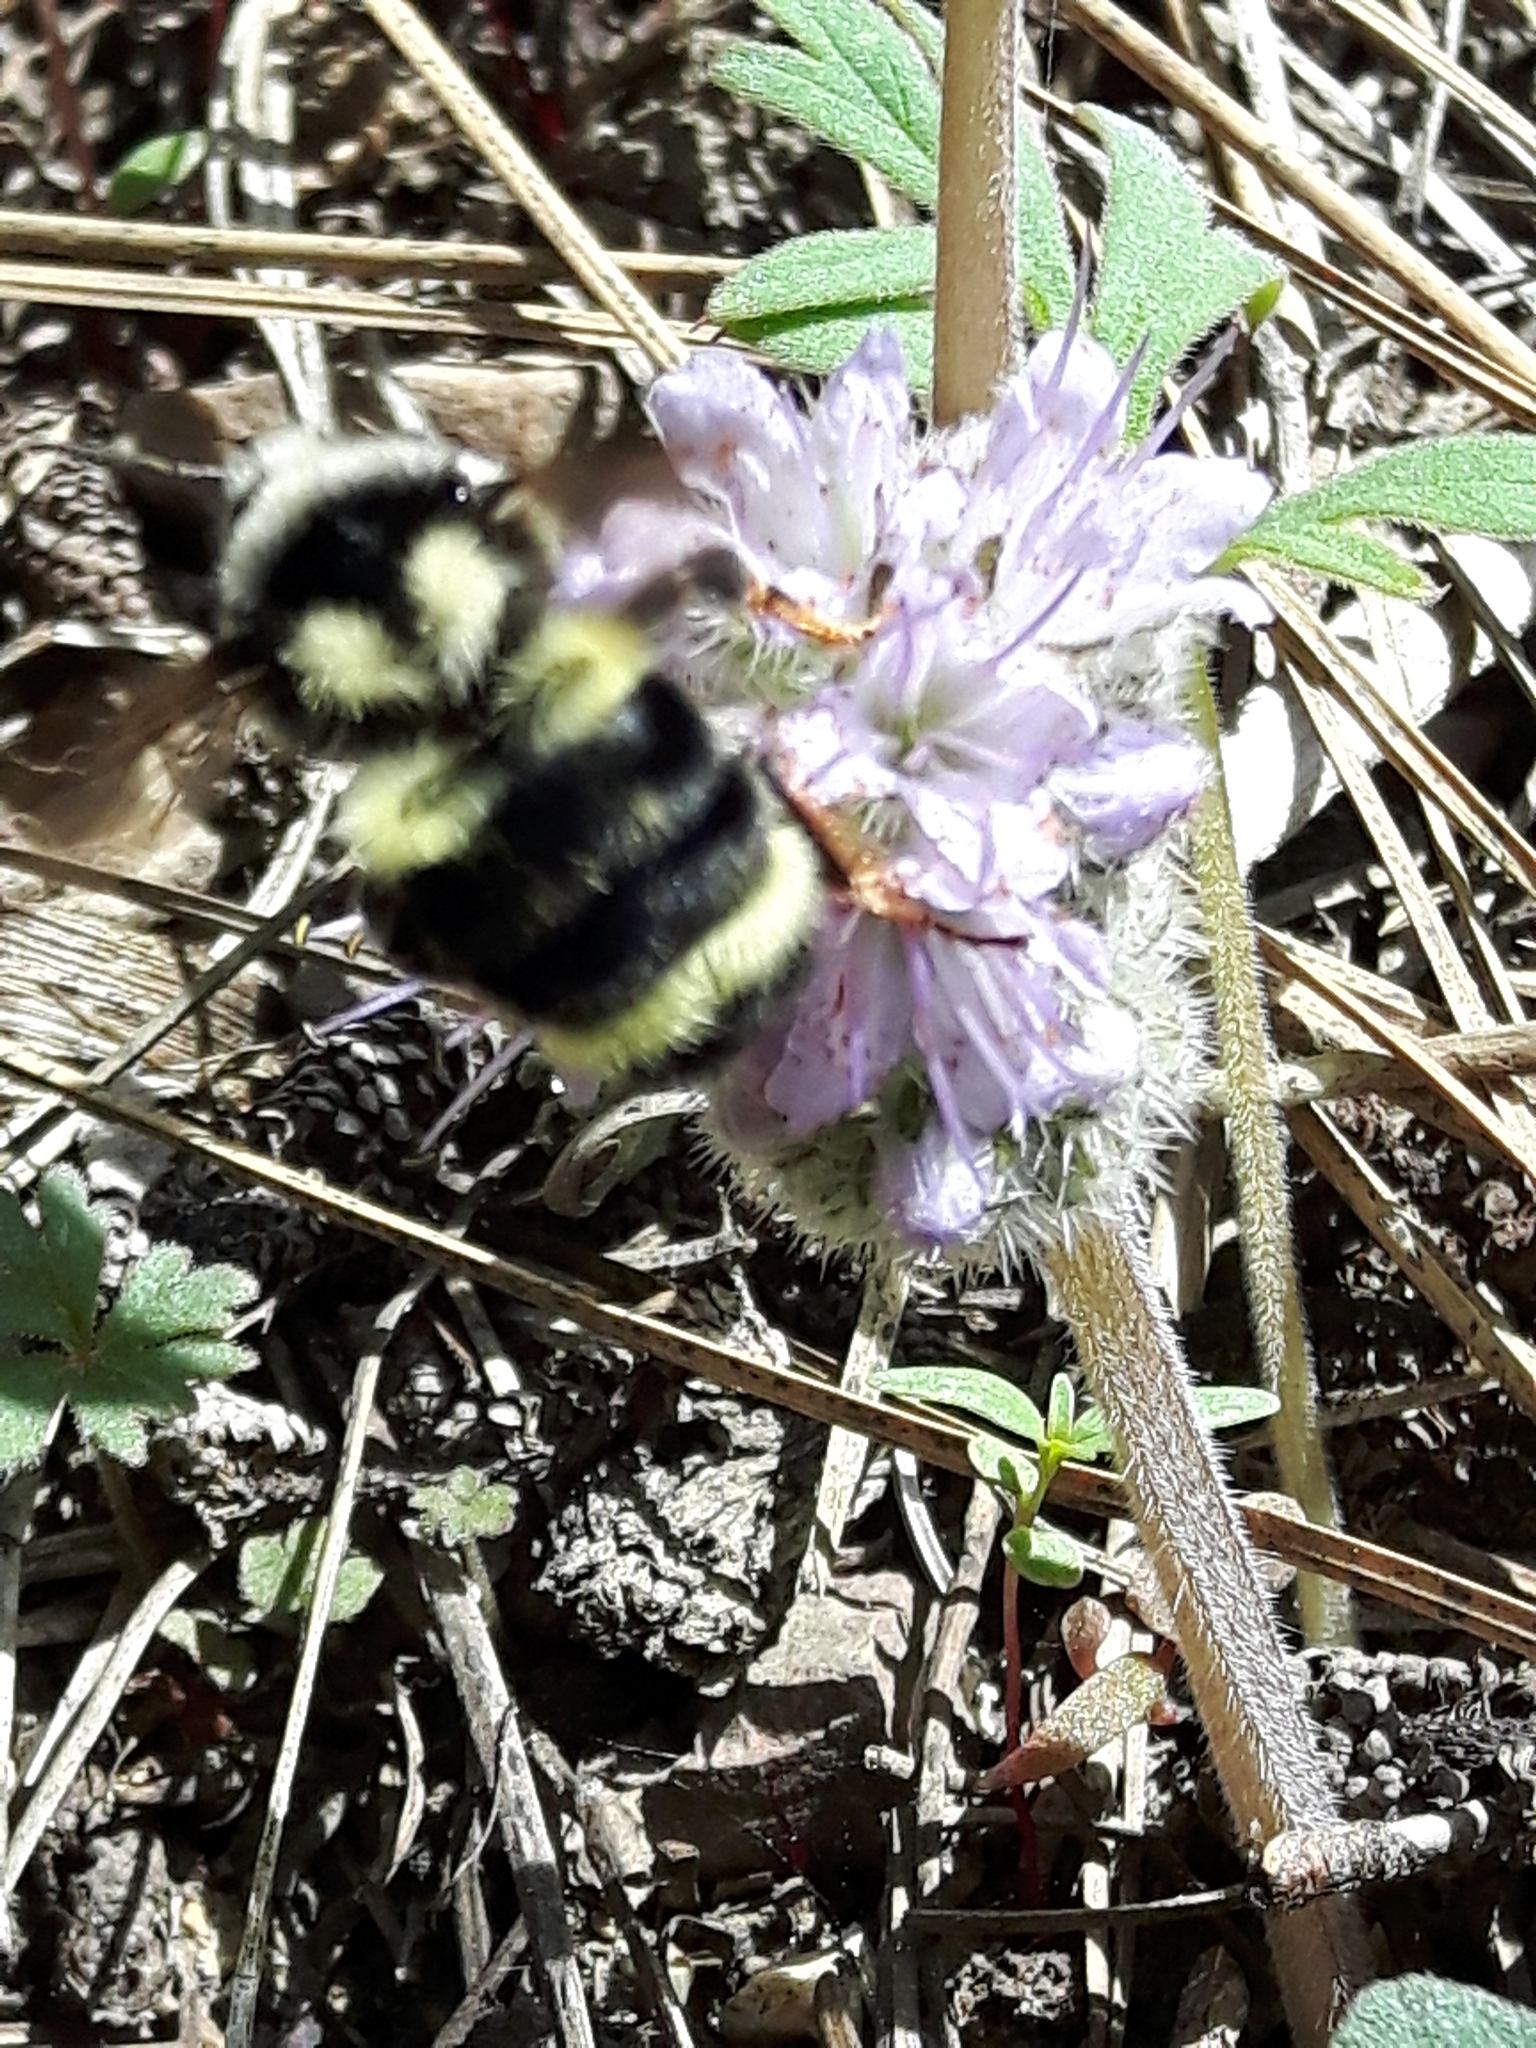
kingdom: Animalia
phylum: Arthropoda
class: Insecta
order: Hymenoptera
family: Apidae
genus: Bombus
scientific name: Bombus vancouverensis
